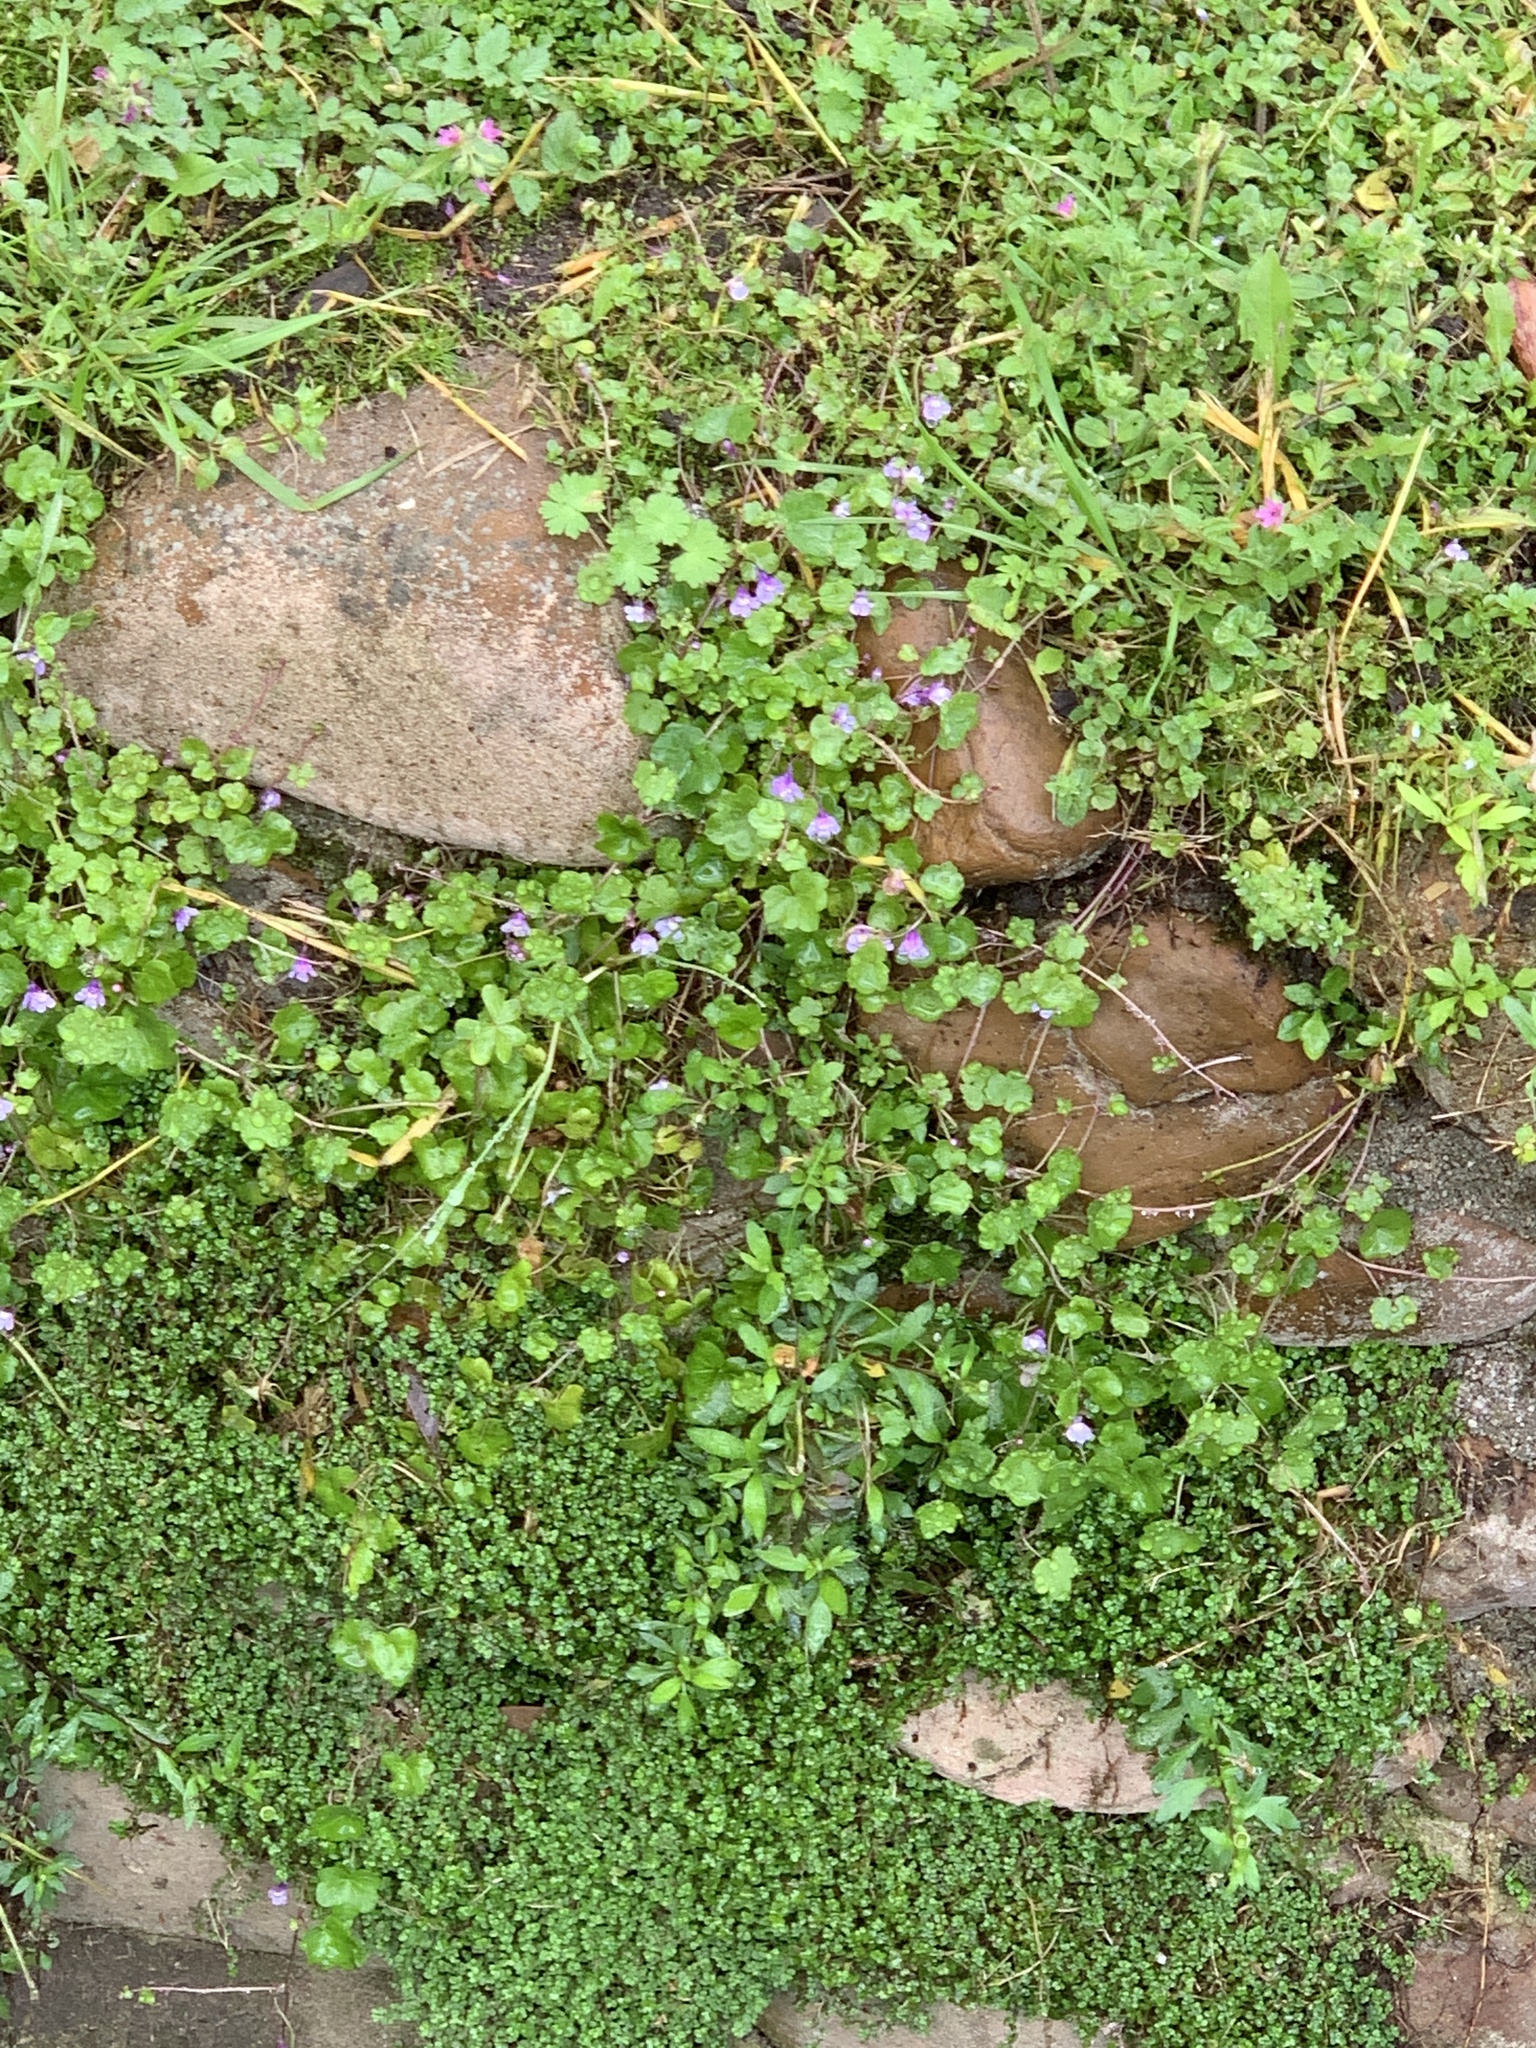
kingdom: Plantae
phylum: Tracheophyta
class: Magnoliopsida
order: Lamiales
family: Plantaginaceae
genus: Cymbalaria
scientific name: Cymbalaria muralis
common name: Ivy-leaved toadflax
